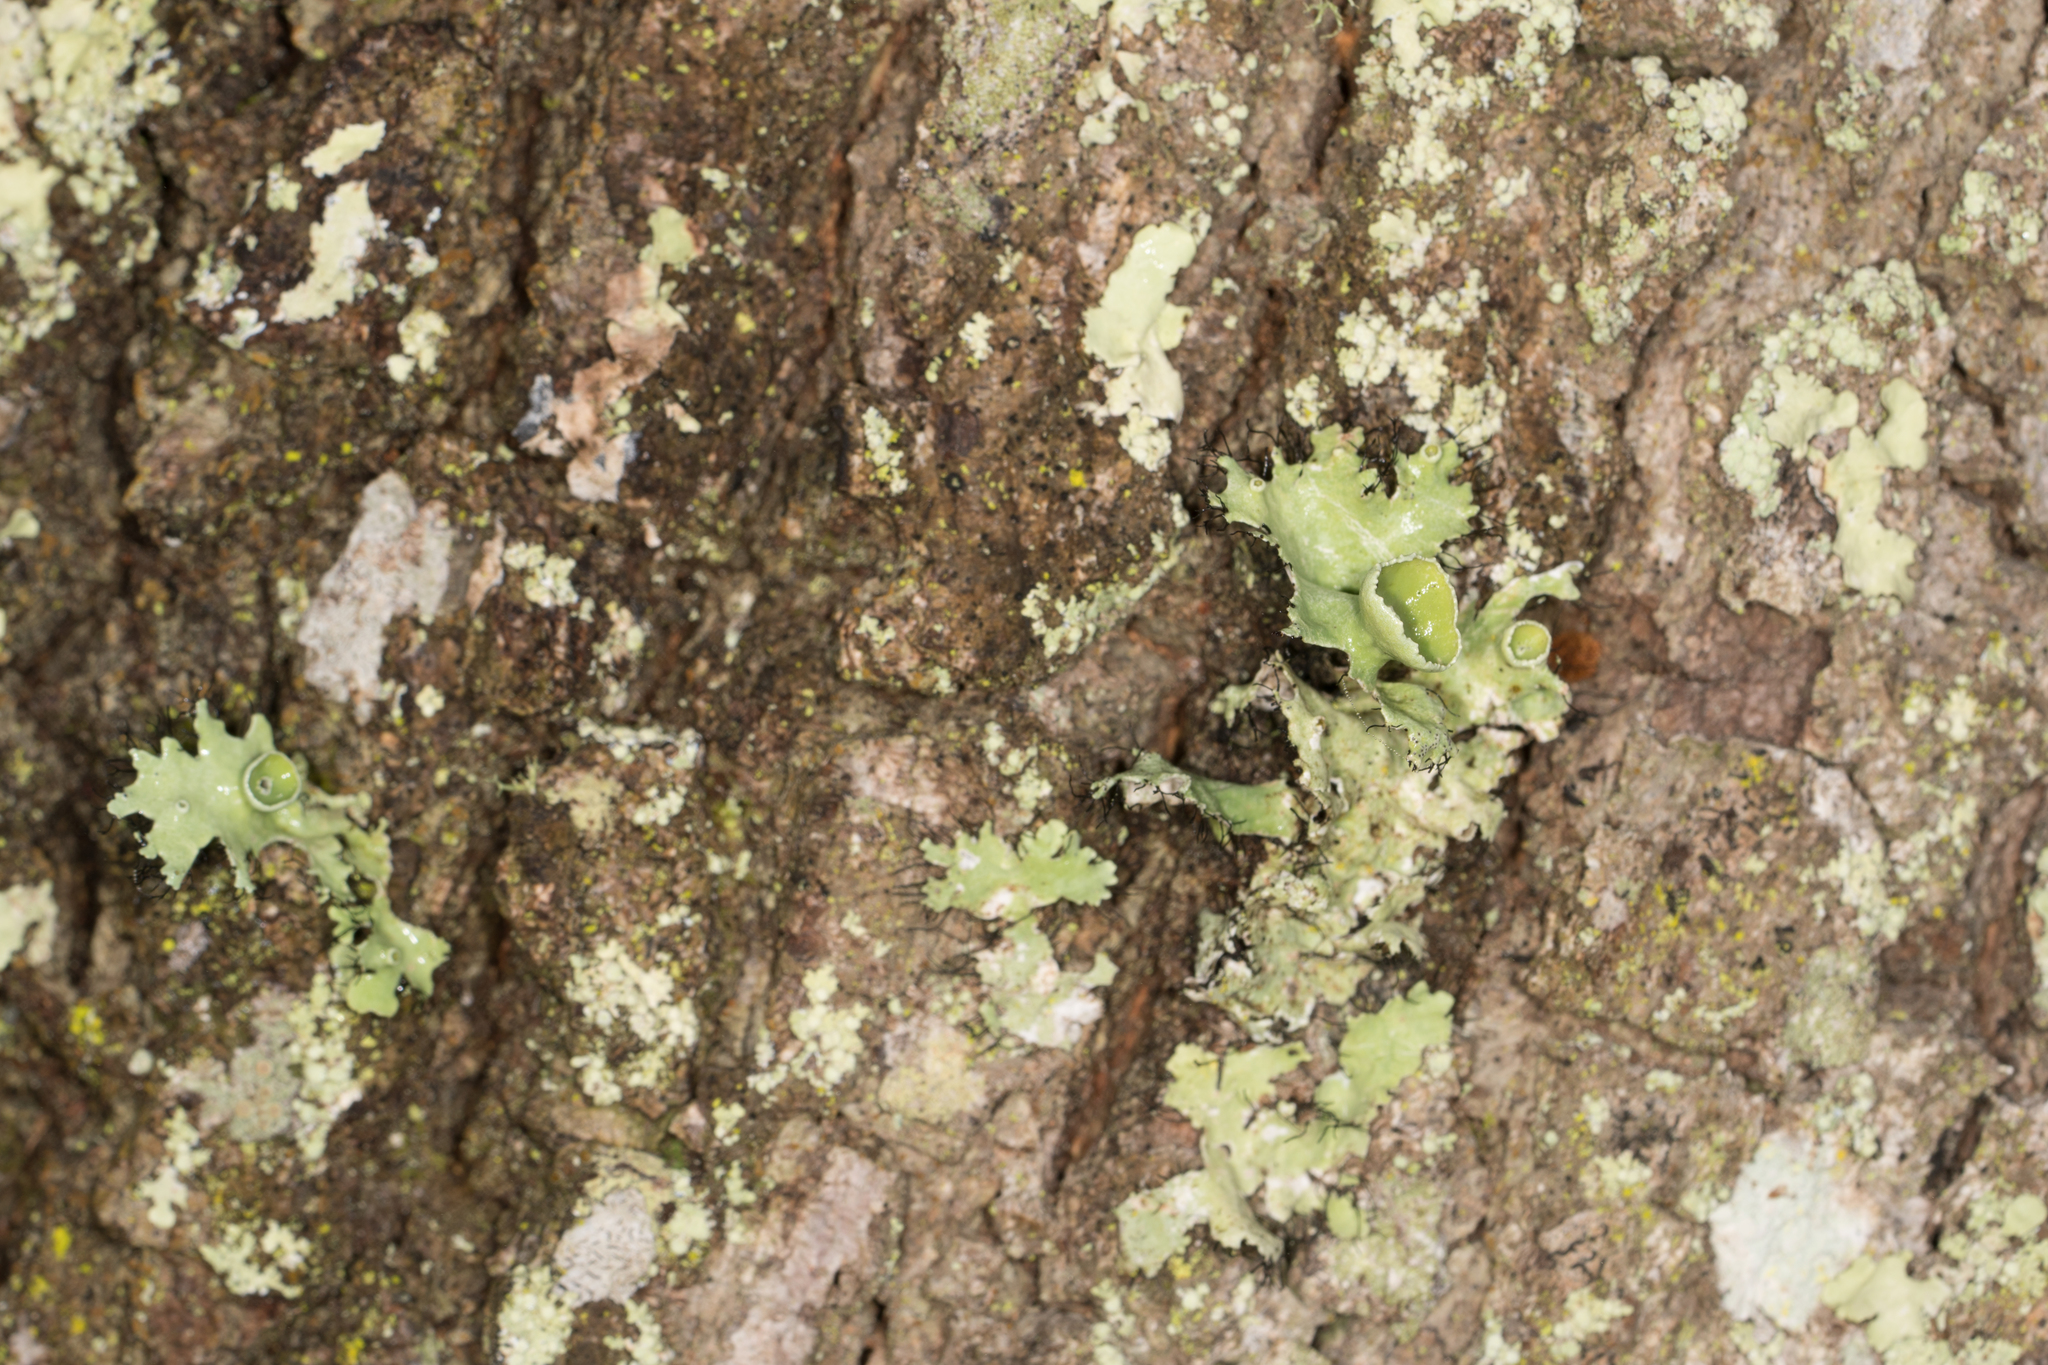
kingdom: Fungi
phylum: Ascomycota
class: Lecanoromycetes
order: Lecanorales
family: Parmeliaceae
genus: Parmotrema
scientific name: Parmotrema perforatum
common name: Perforated ruffle lichen
